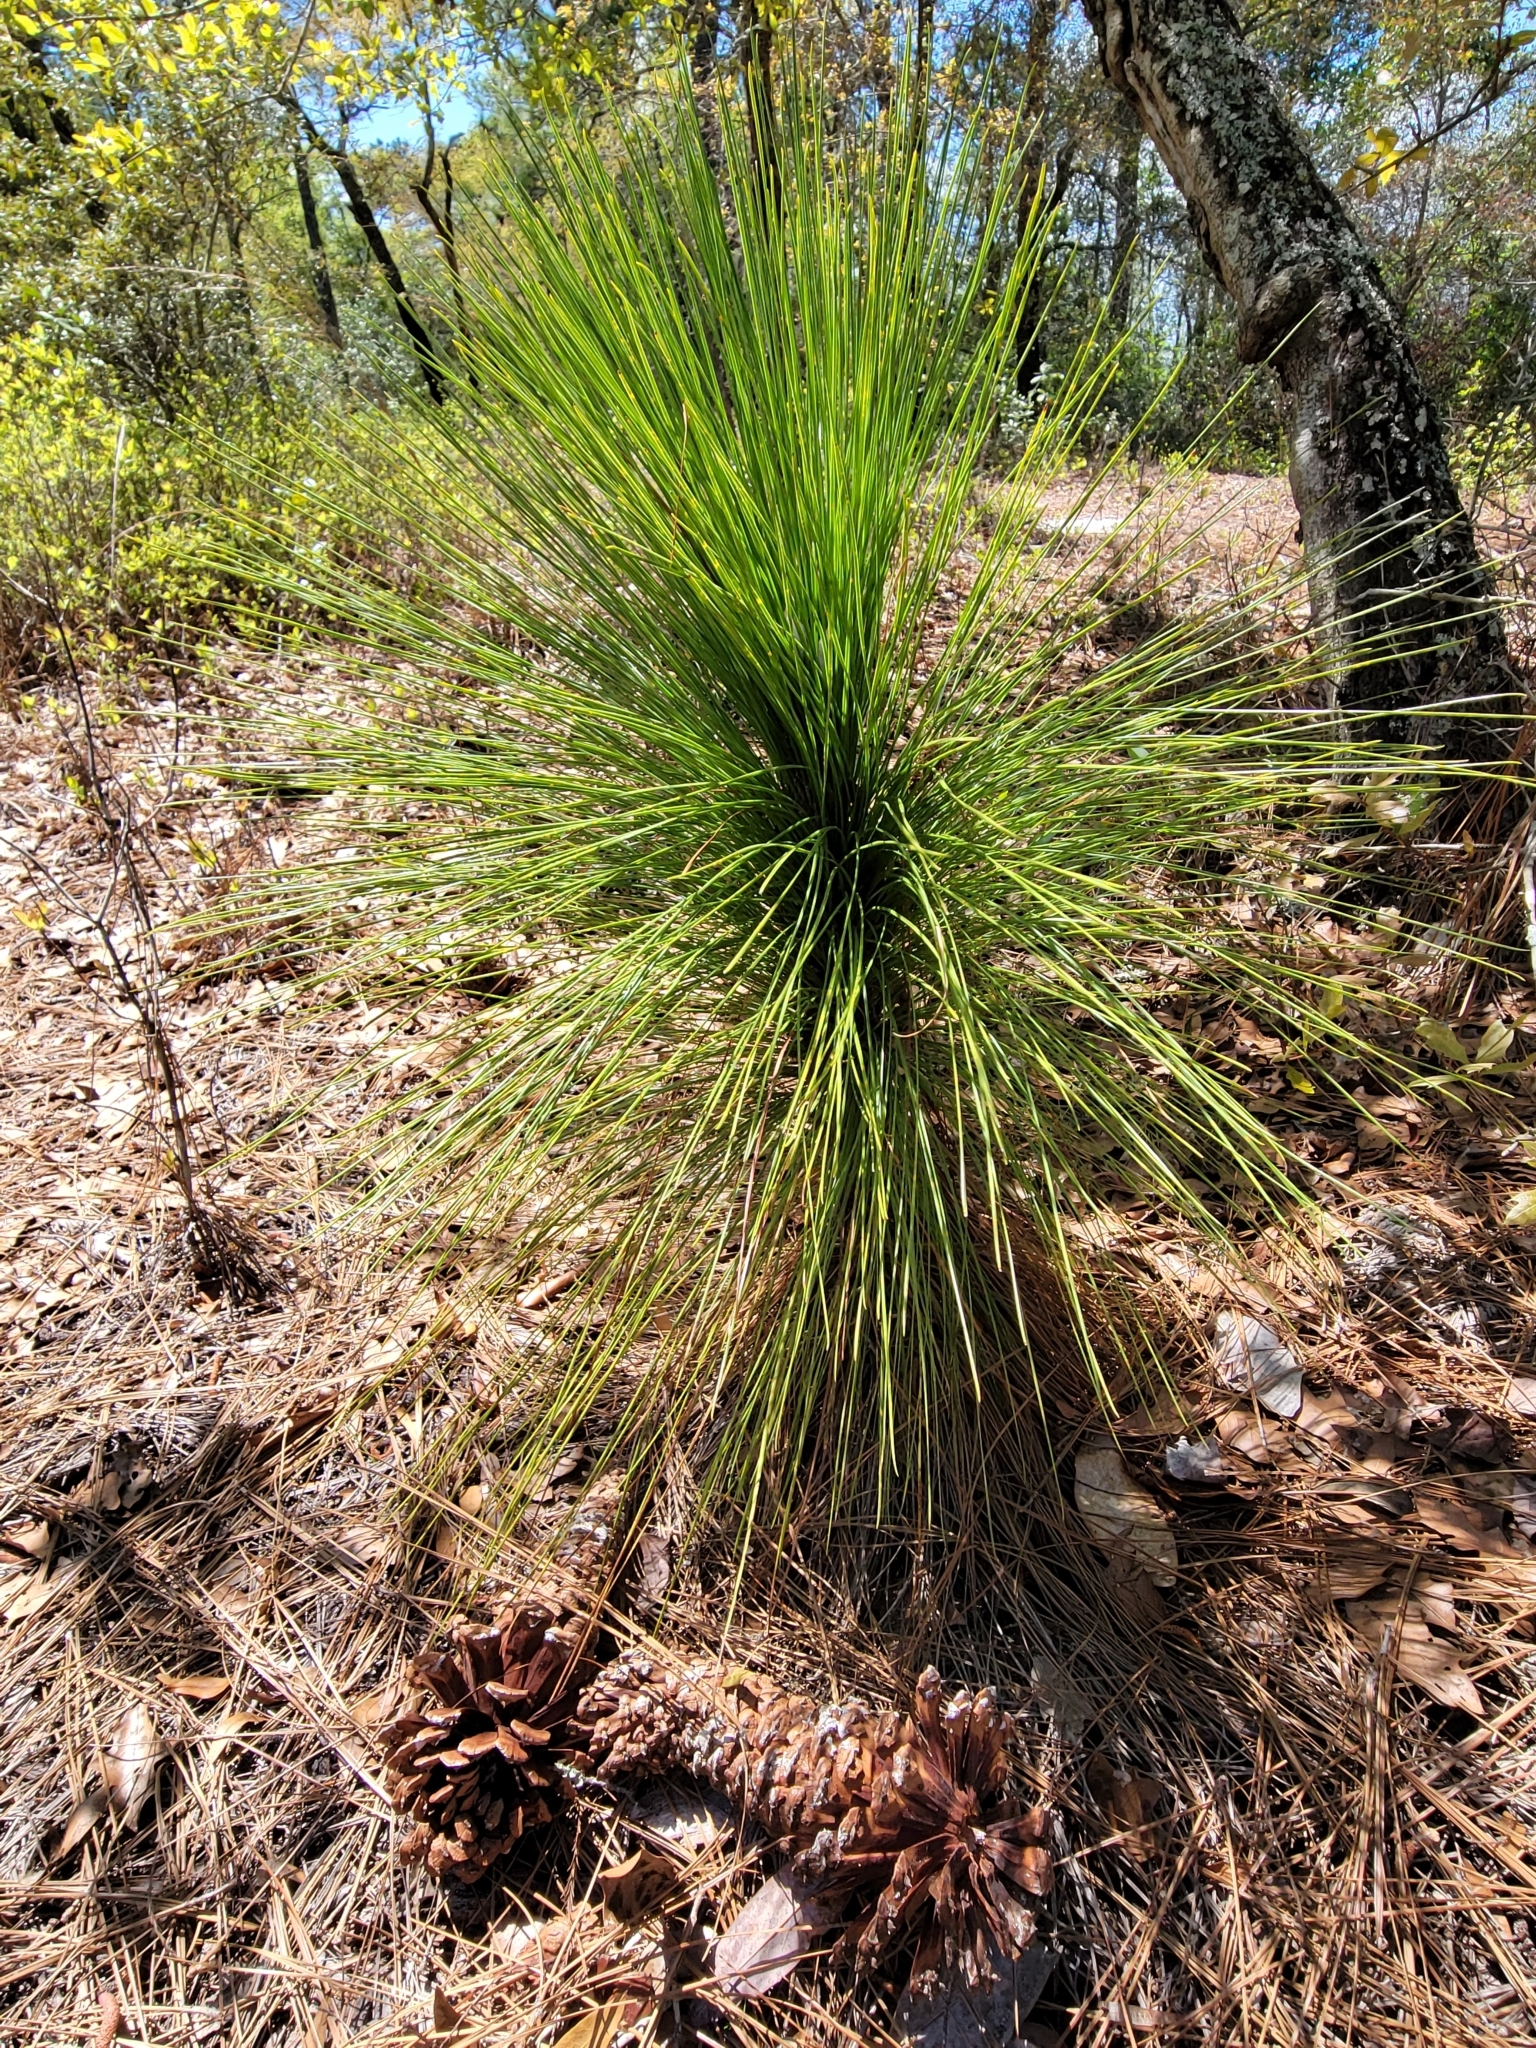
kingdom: Plantae
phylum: Tracheophyta
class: Pinopsida
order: Pinales
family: Pinaceae
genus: Pinus
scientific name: Pinus palustris
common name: Longleaf pine
